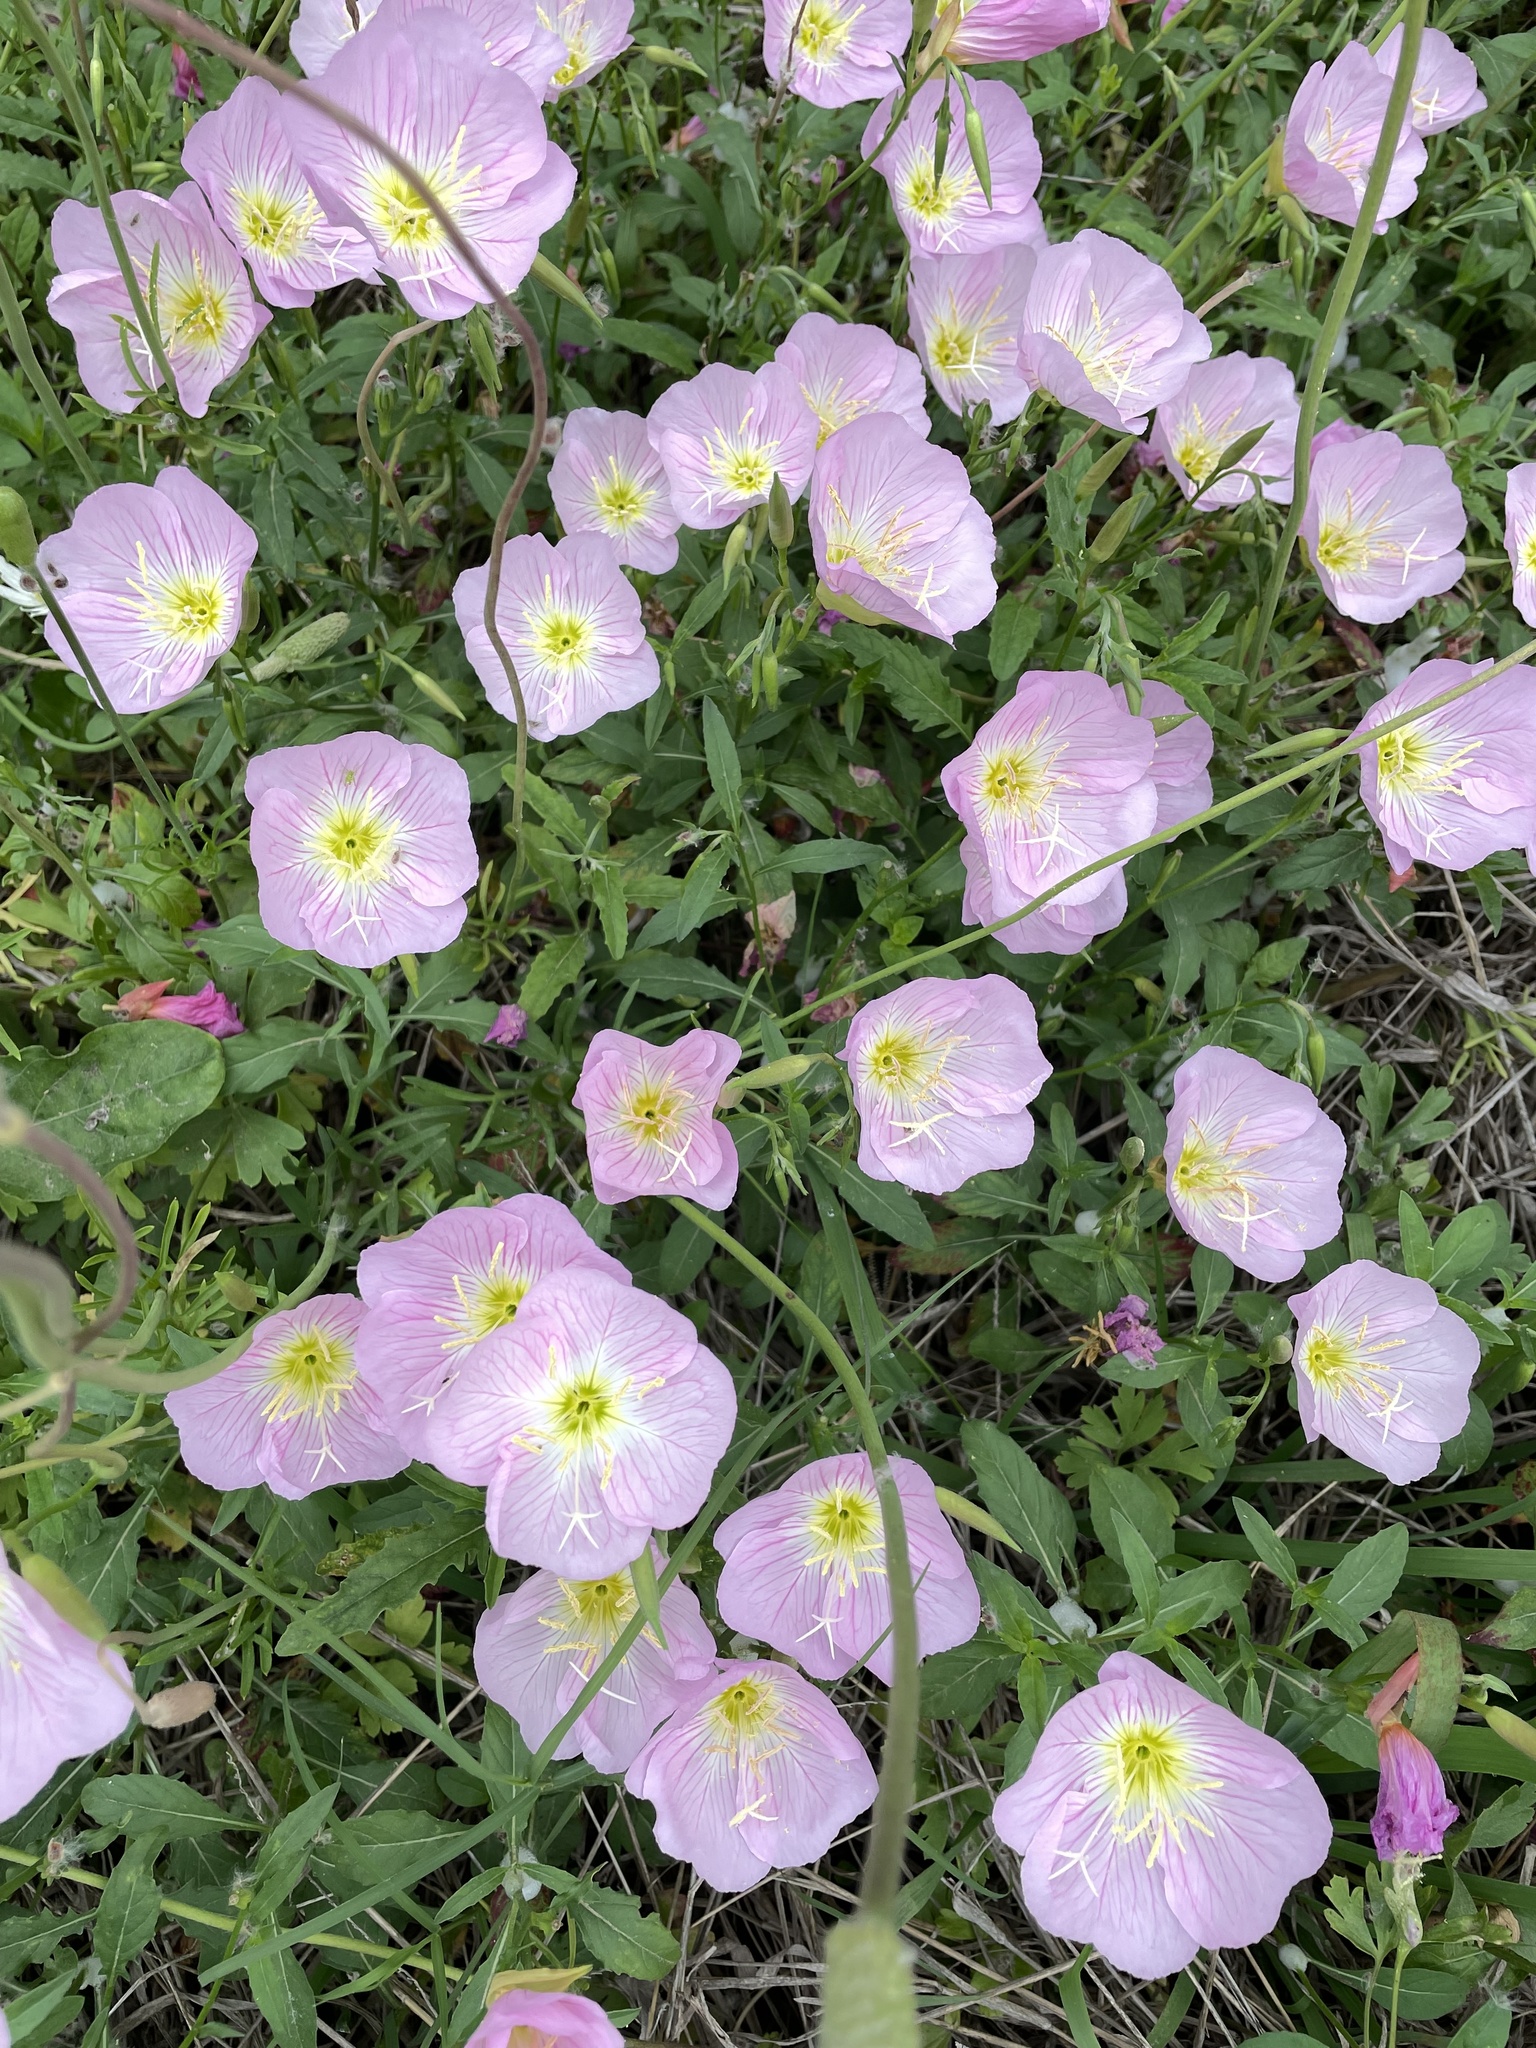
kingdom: Plantae
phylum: Tracheophyta
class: Magnoliopsida
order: Myrtales
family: Onagraceae
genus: Oenothera
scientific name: Oenothera speciosa
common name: White evening-primrose
